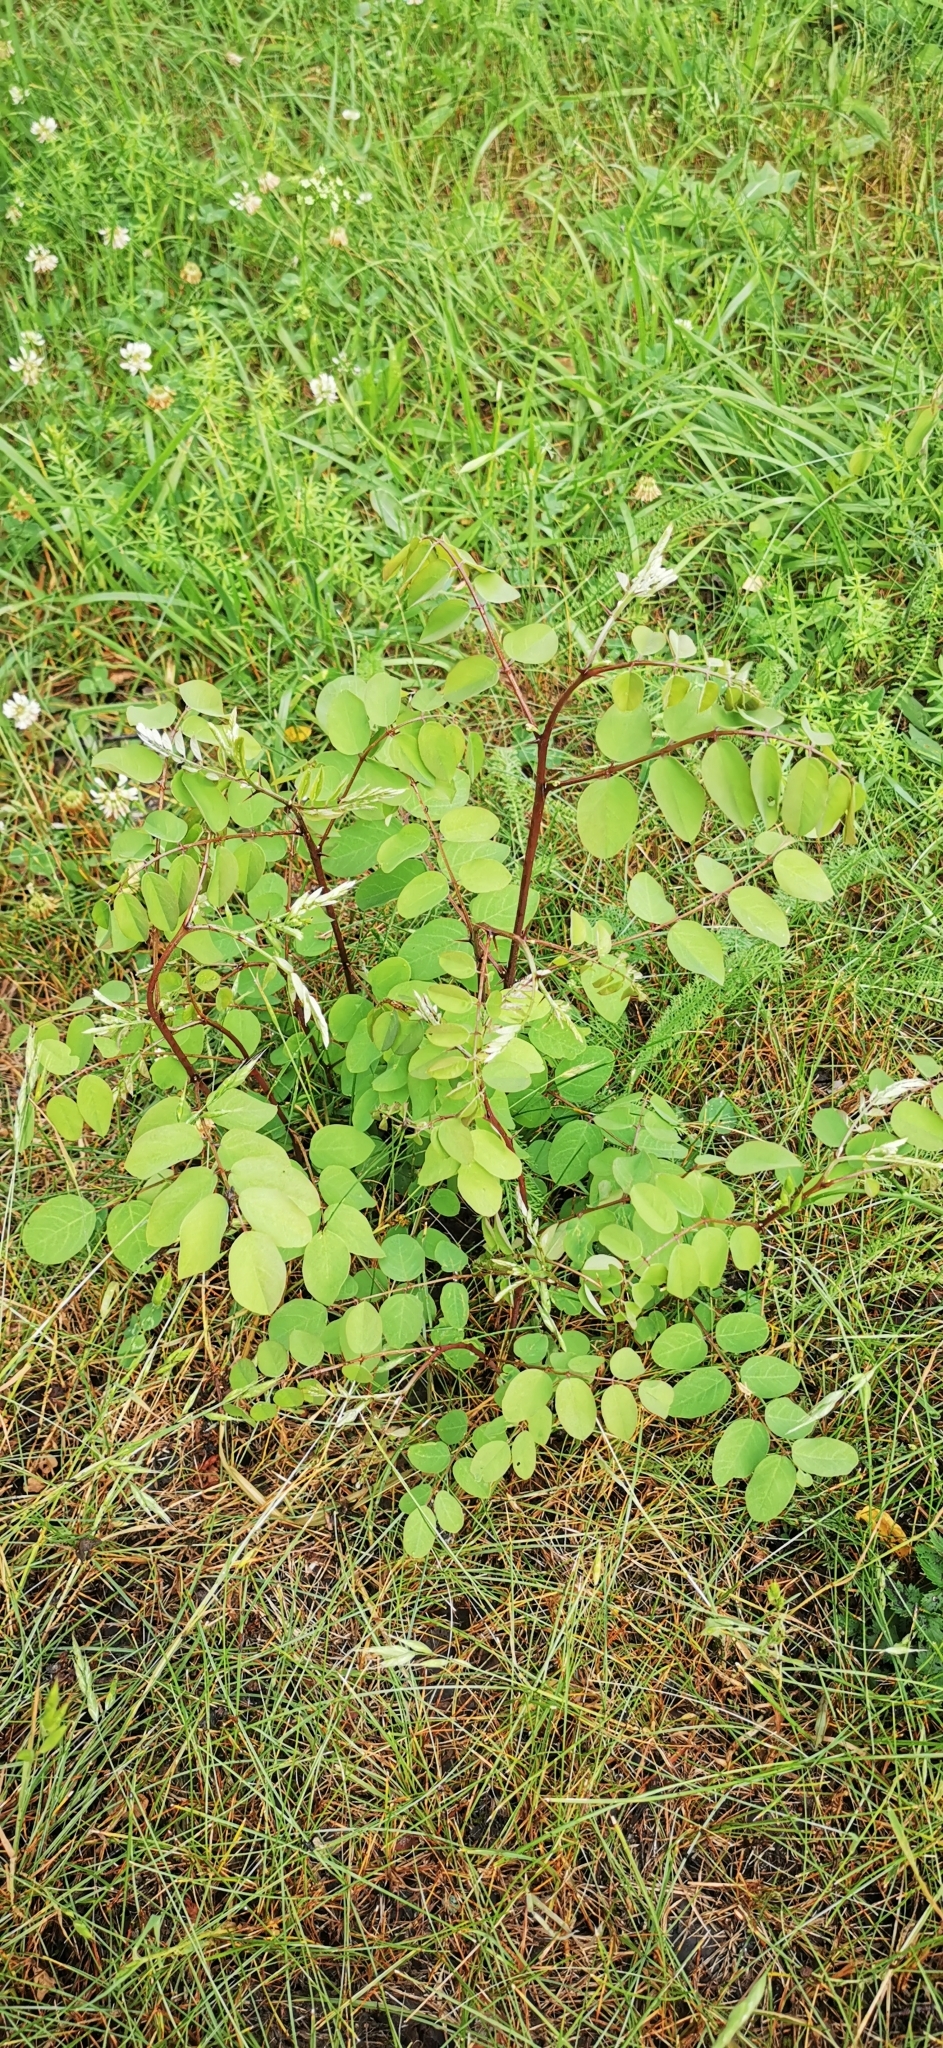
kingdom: Plantae
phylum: Tracheophyta
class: Magnoliopsida
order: Fabales
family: Fabaceae
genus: Robinia
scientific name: Robinia pseudoacacia
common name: Black locust
